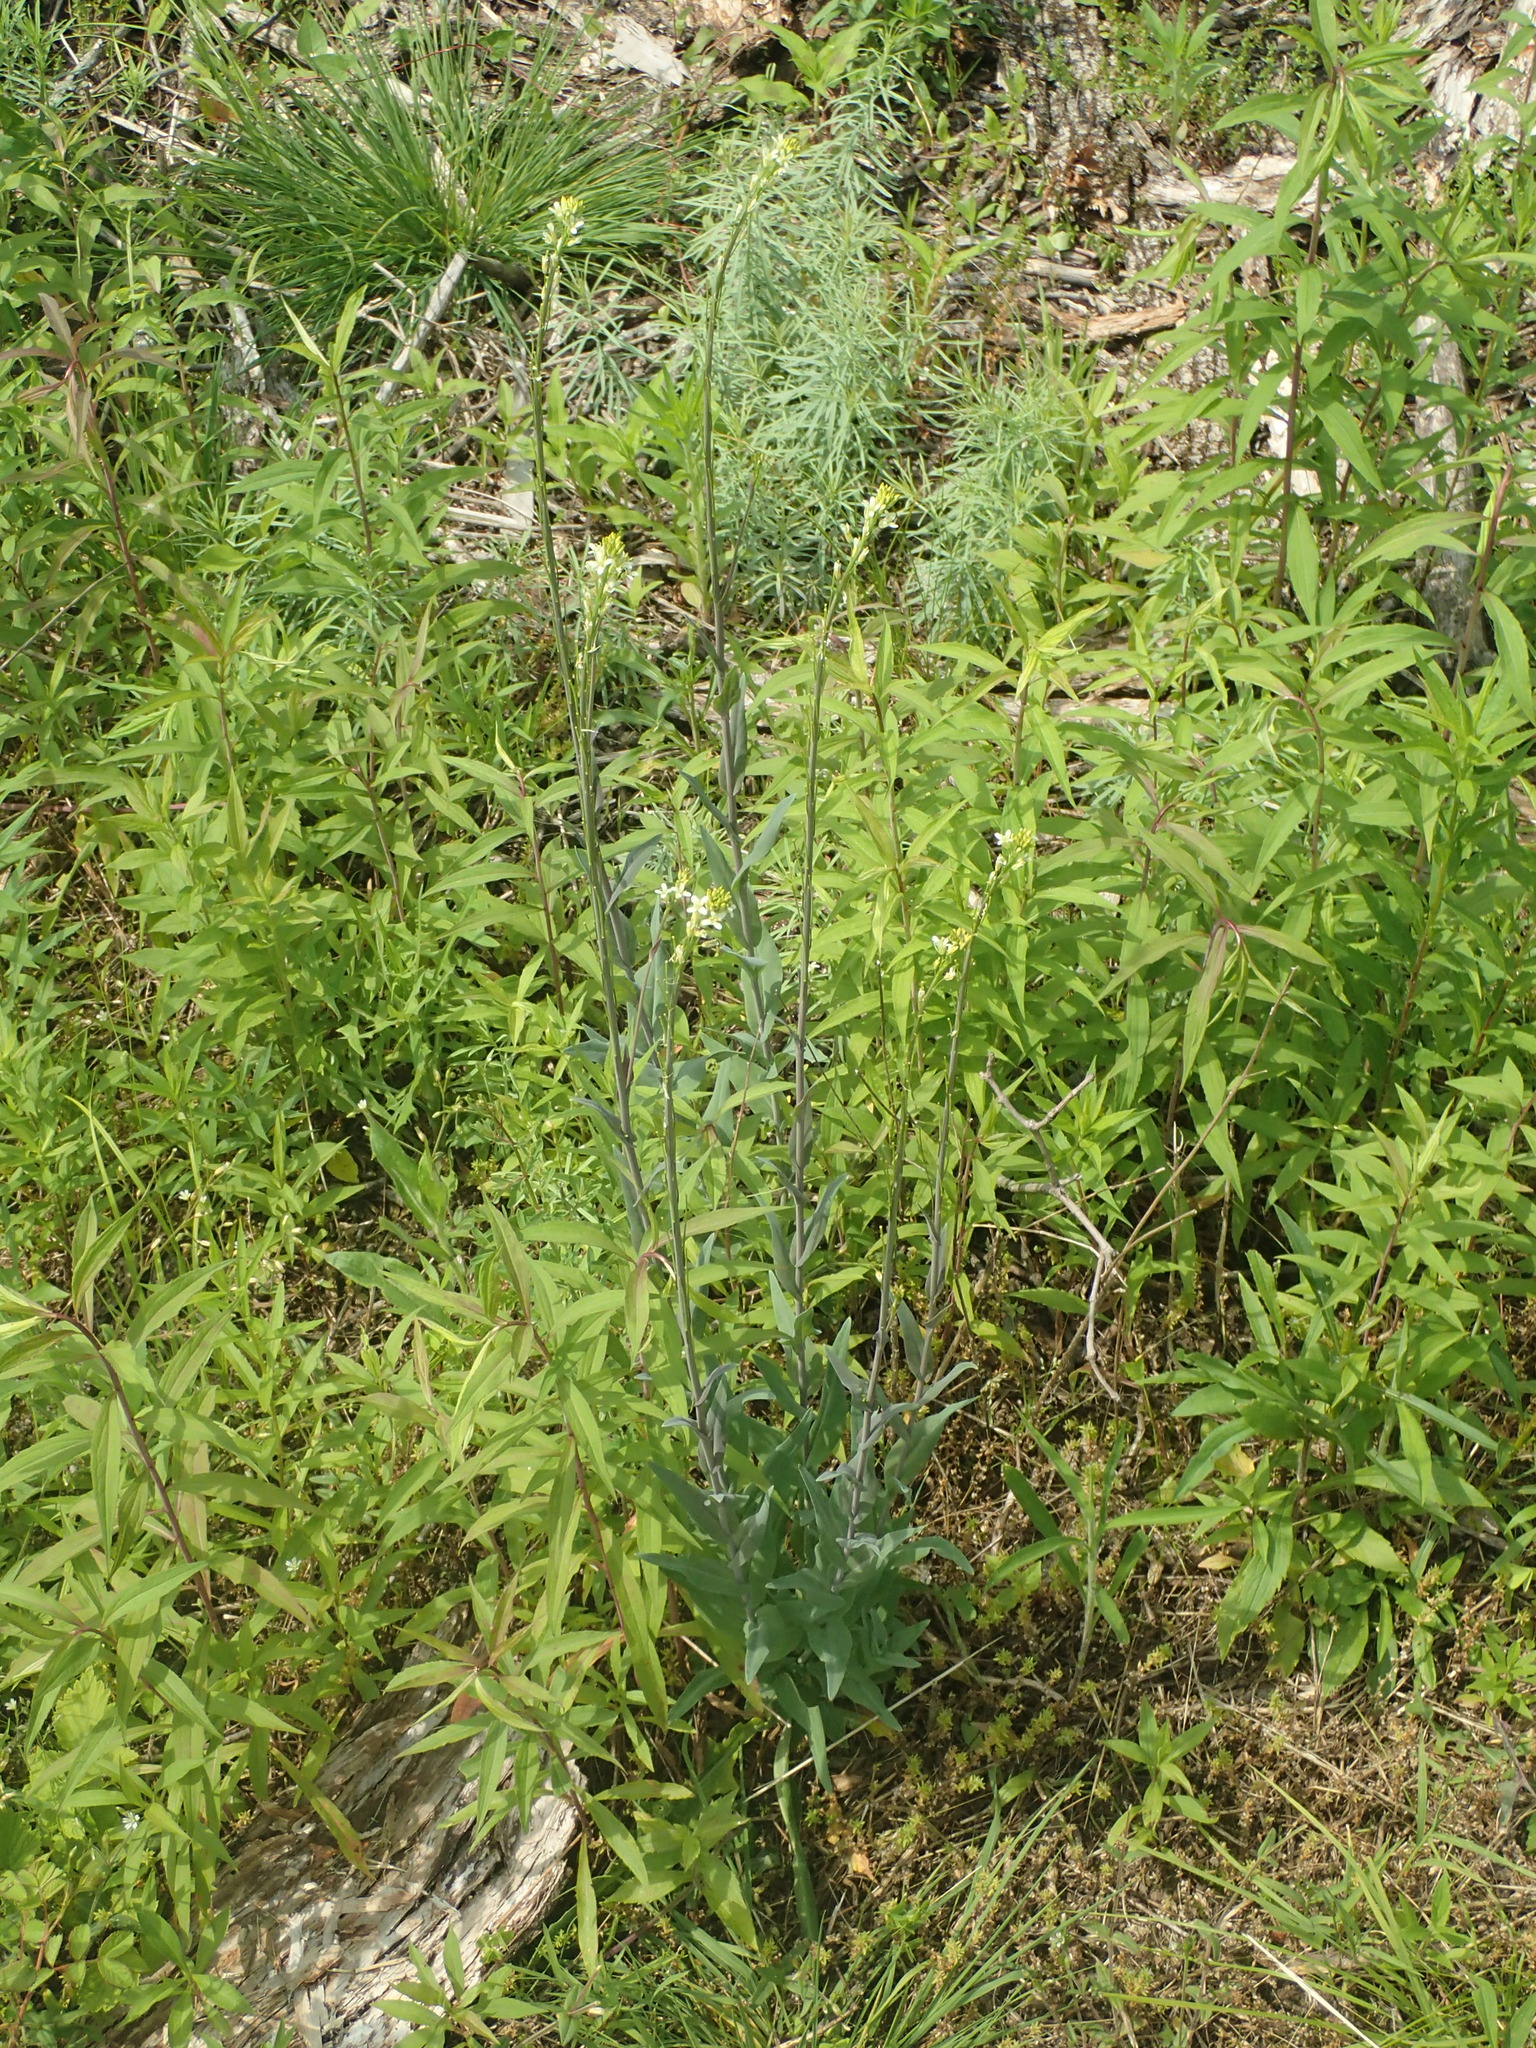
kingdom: Plantae
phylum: Tracheophyta
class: Magnoliopsida
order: Brassicales
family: Brassicaceae
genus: Turritis
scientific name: Turritis glabra
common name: Tower rockcress
